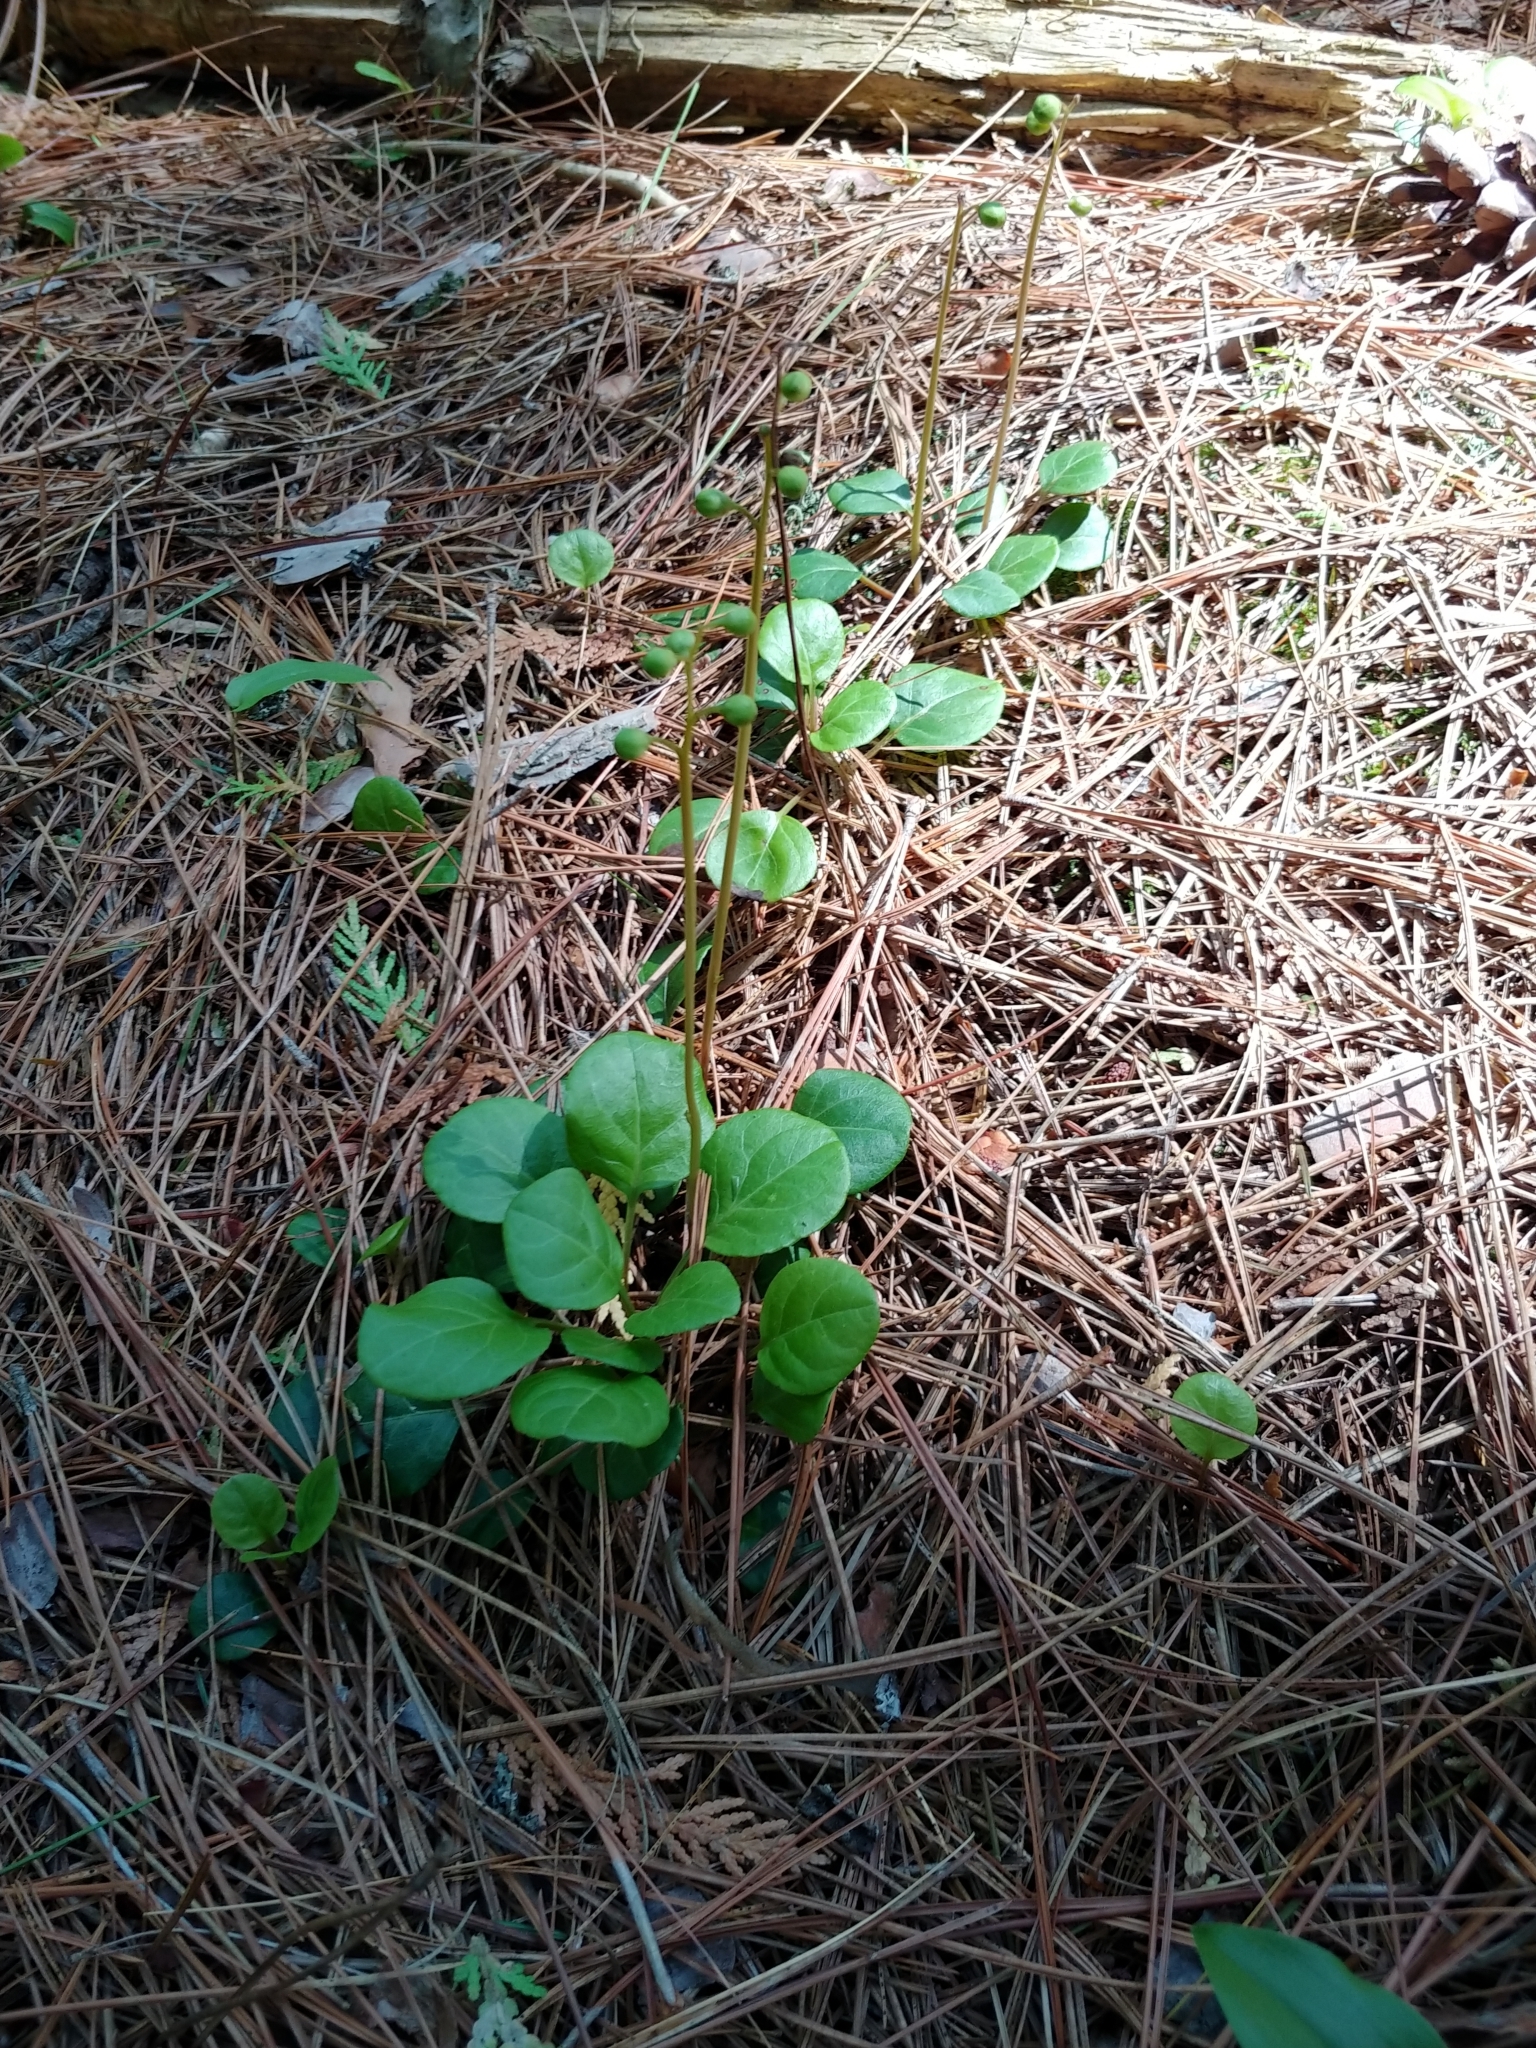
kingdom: Plantae
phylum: Tracheophyta
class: Magnoliopsida
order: Ericales
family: Ericaceae
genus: Pyrola
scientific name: Pyrola chlorantha
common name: Green wintergreen
